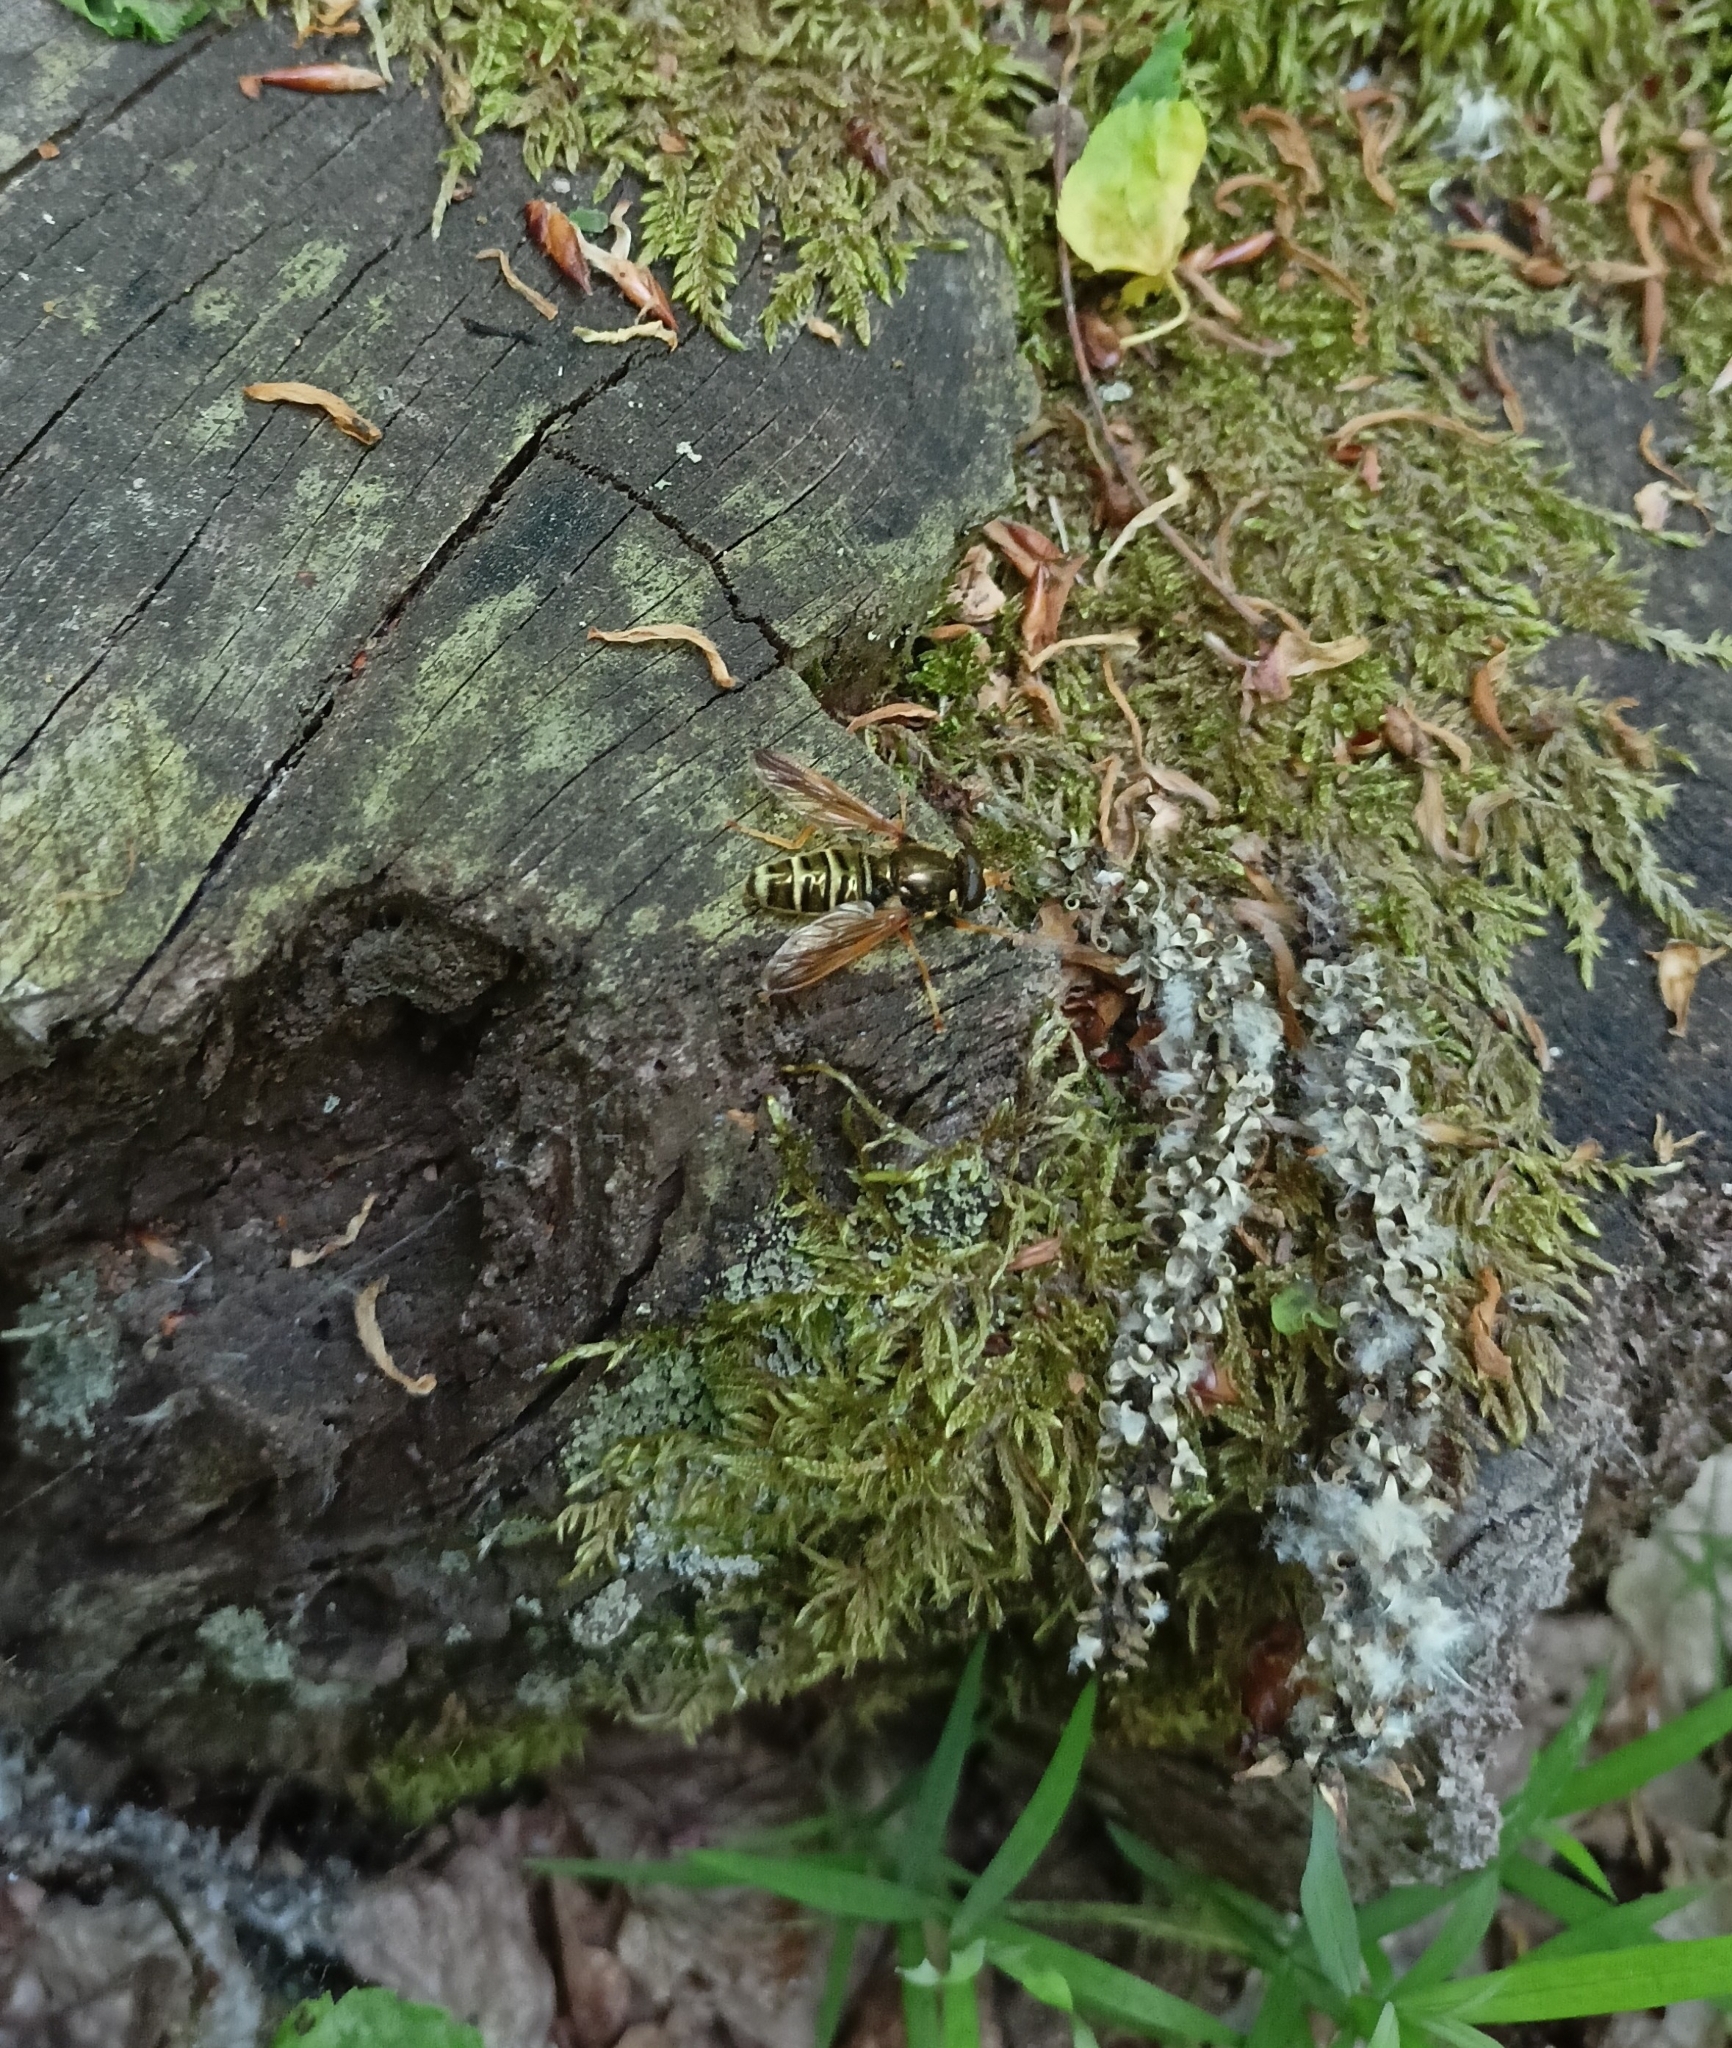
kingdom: Animalia
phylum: Arthropoda
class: Insecta
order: Diptera
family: Syrphidae
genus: Caliprobola
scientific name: Caliprobola speciosa
